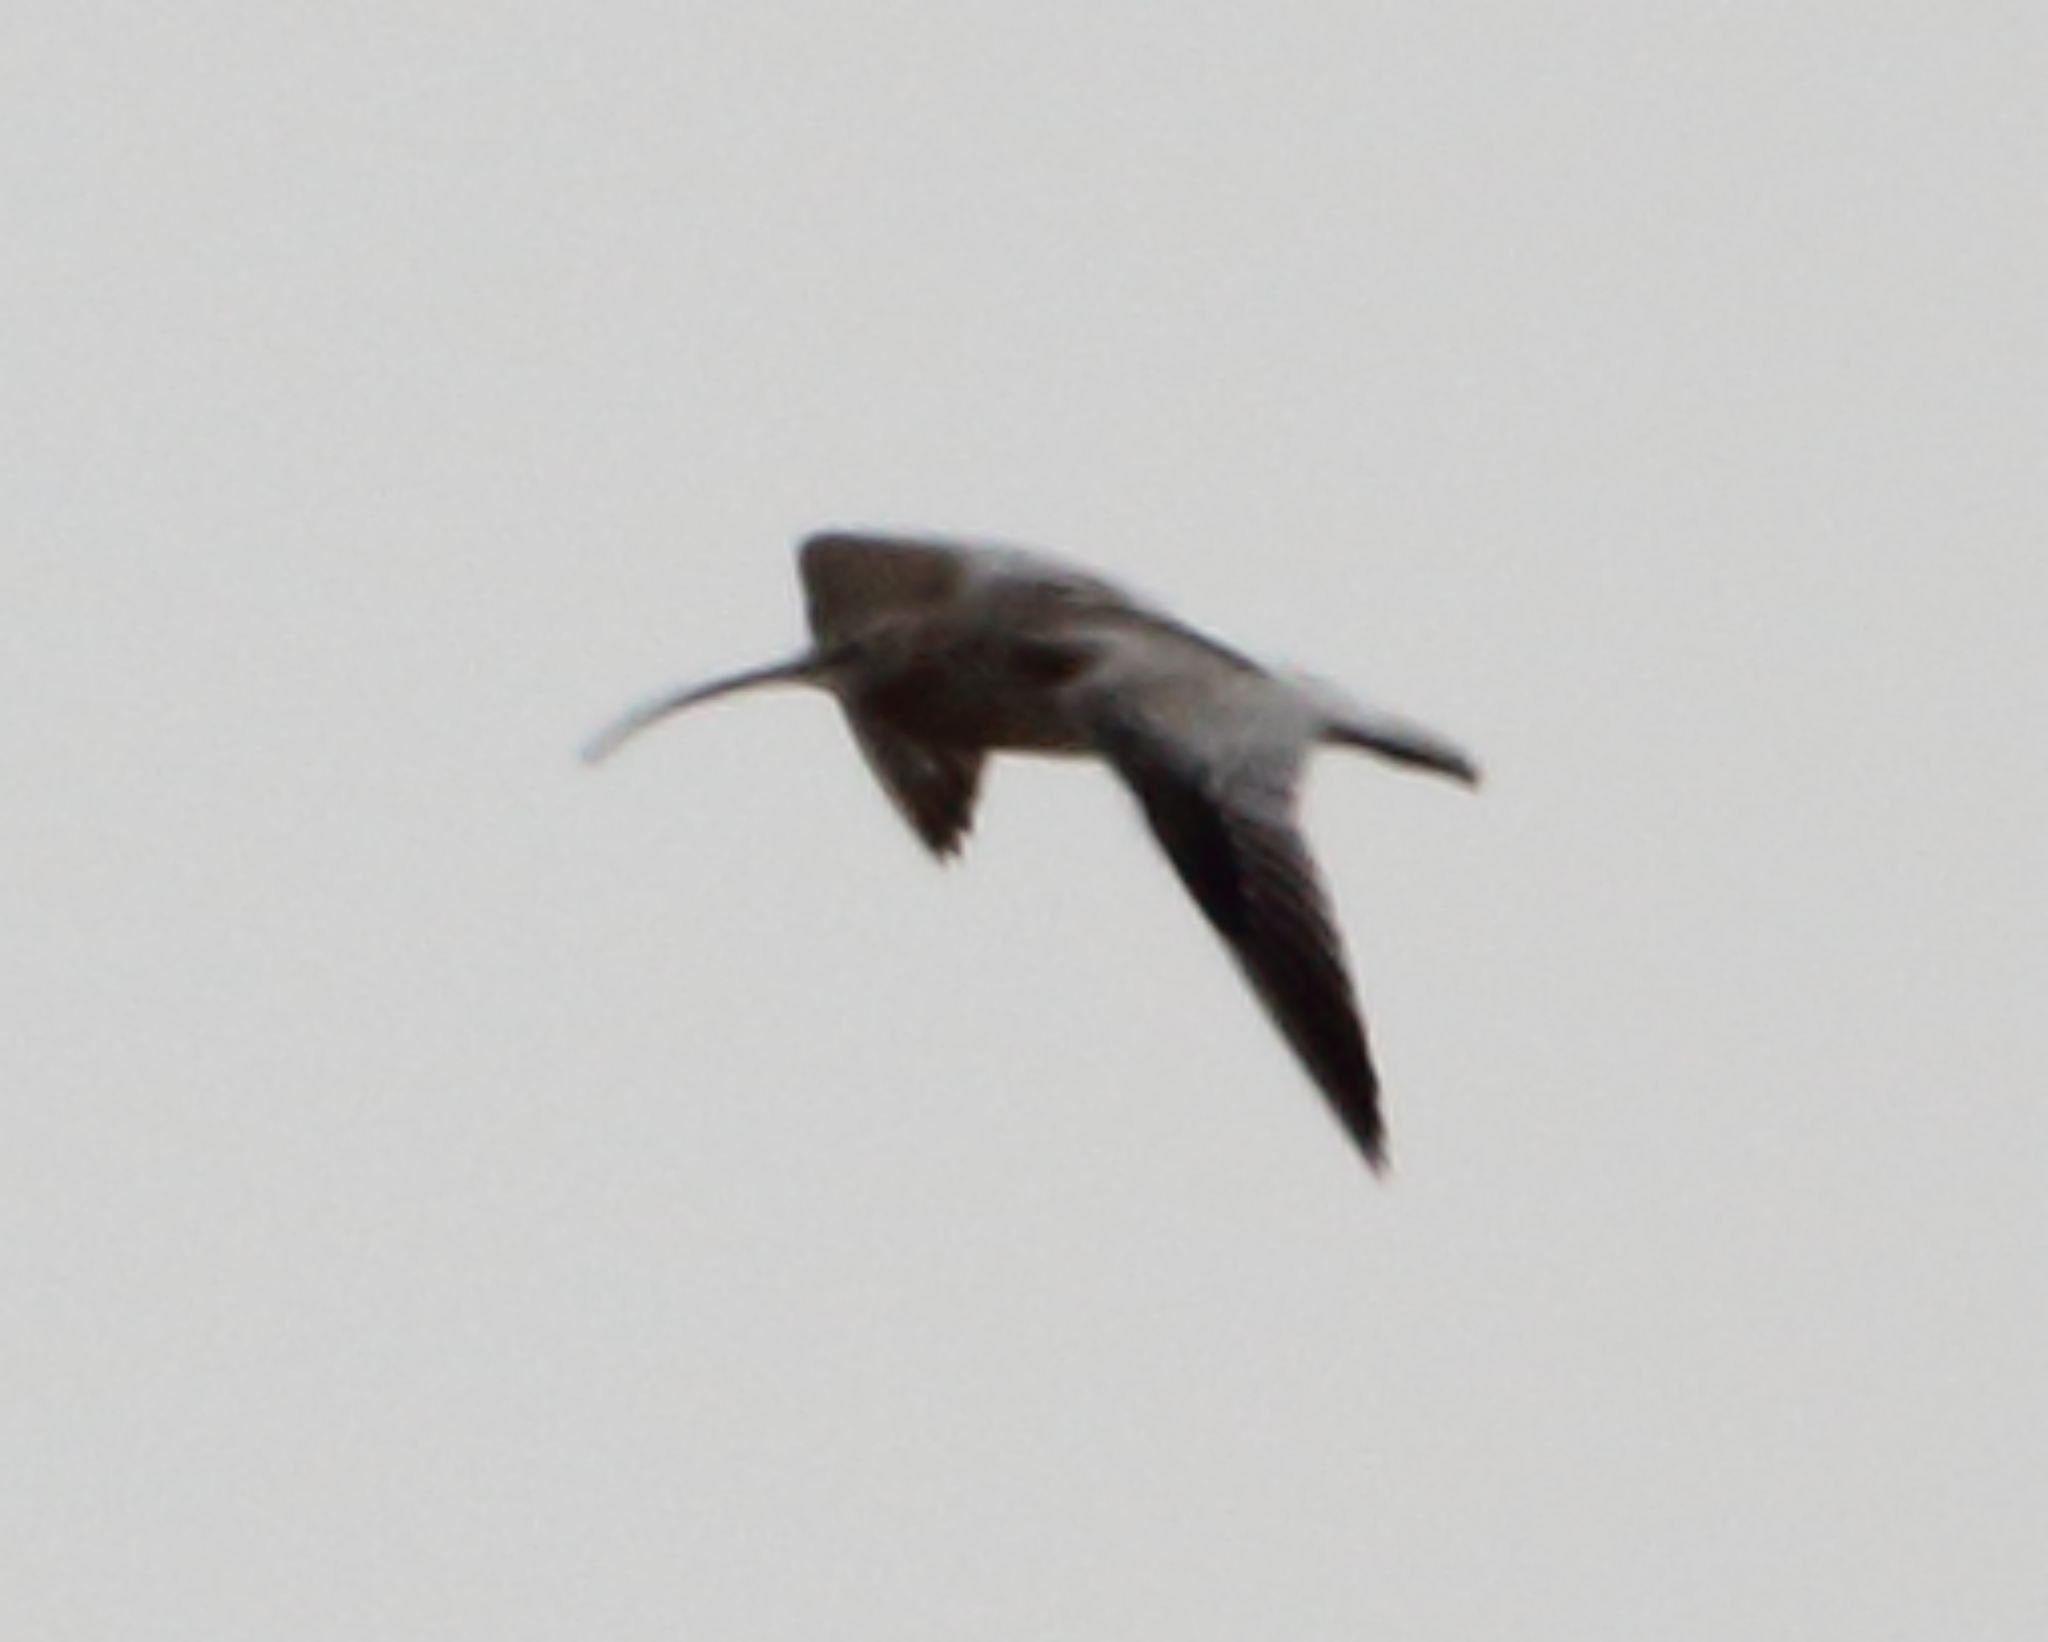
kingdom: Animalia
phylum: Chordata
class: Aves
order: Charadriiformes
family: Scolopacidae
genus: Numenius
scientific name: Numenius arquata
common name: Eurasian curlew
